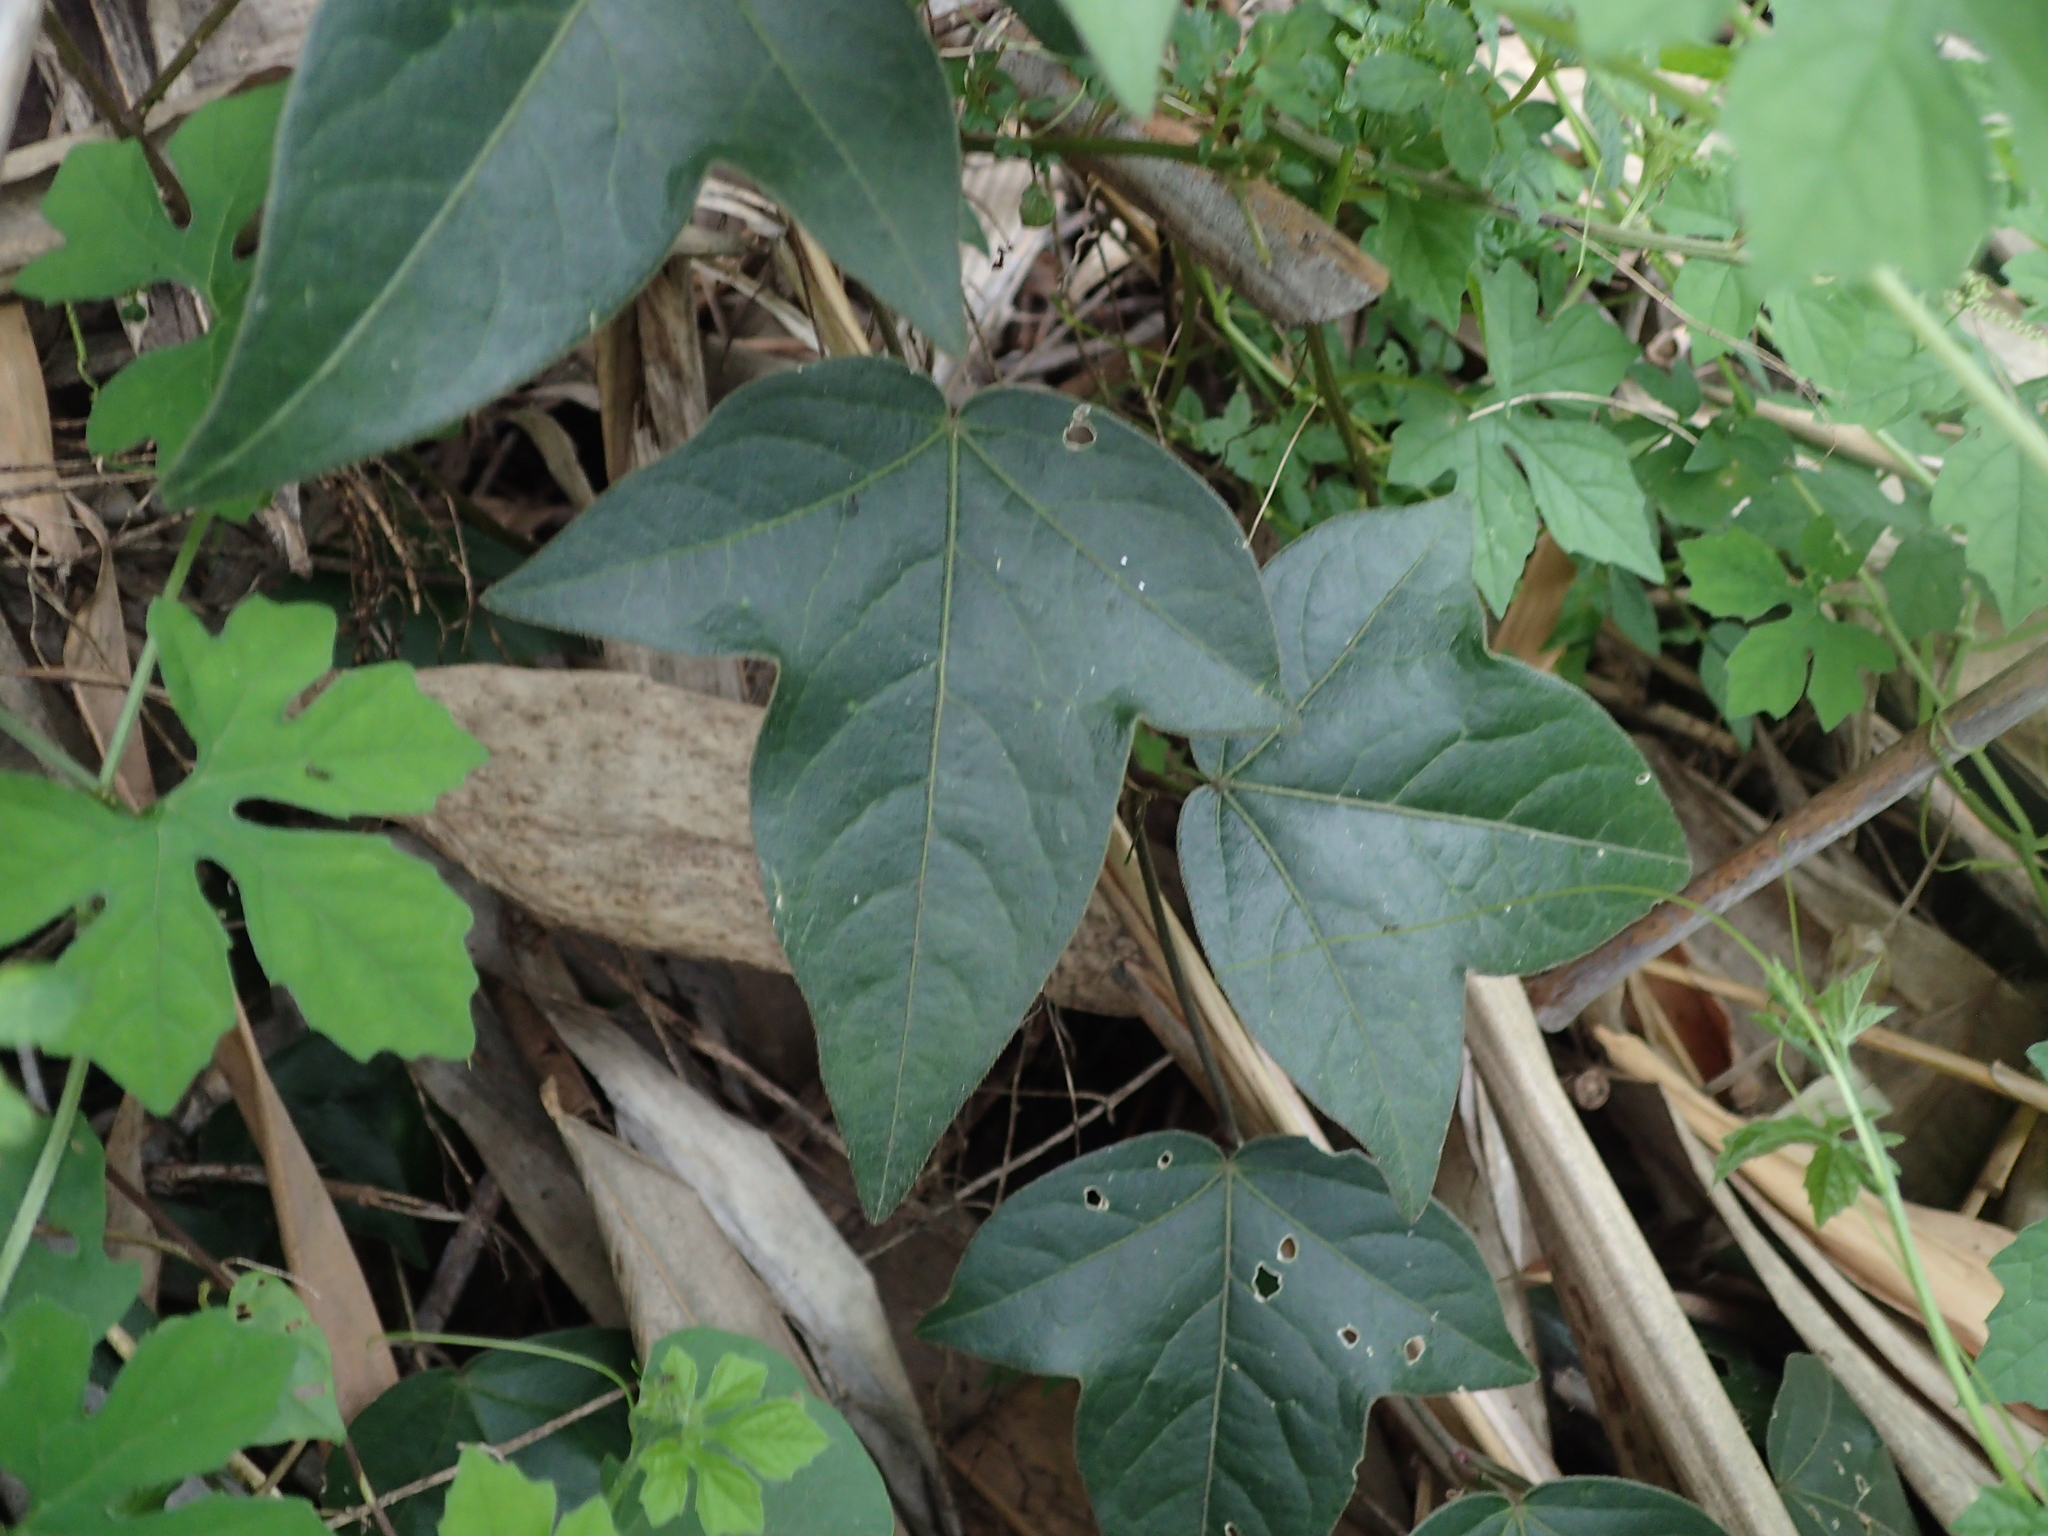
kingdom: Plantae
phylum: Tracheophyta
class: Magnoliopsida
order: Malpighiales
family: Passifloraceae
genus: Passiflora
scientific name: Passiflora suberosa
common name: Wild passionfruit
